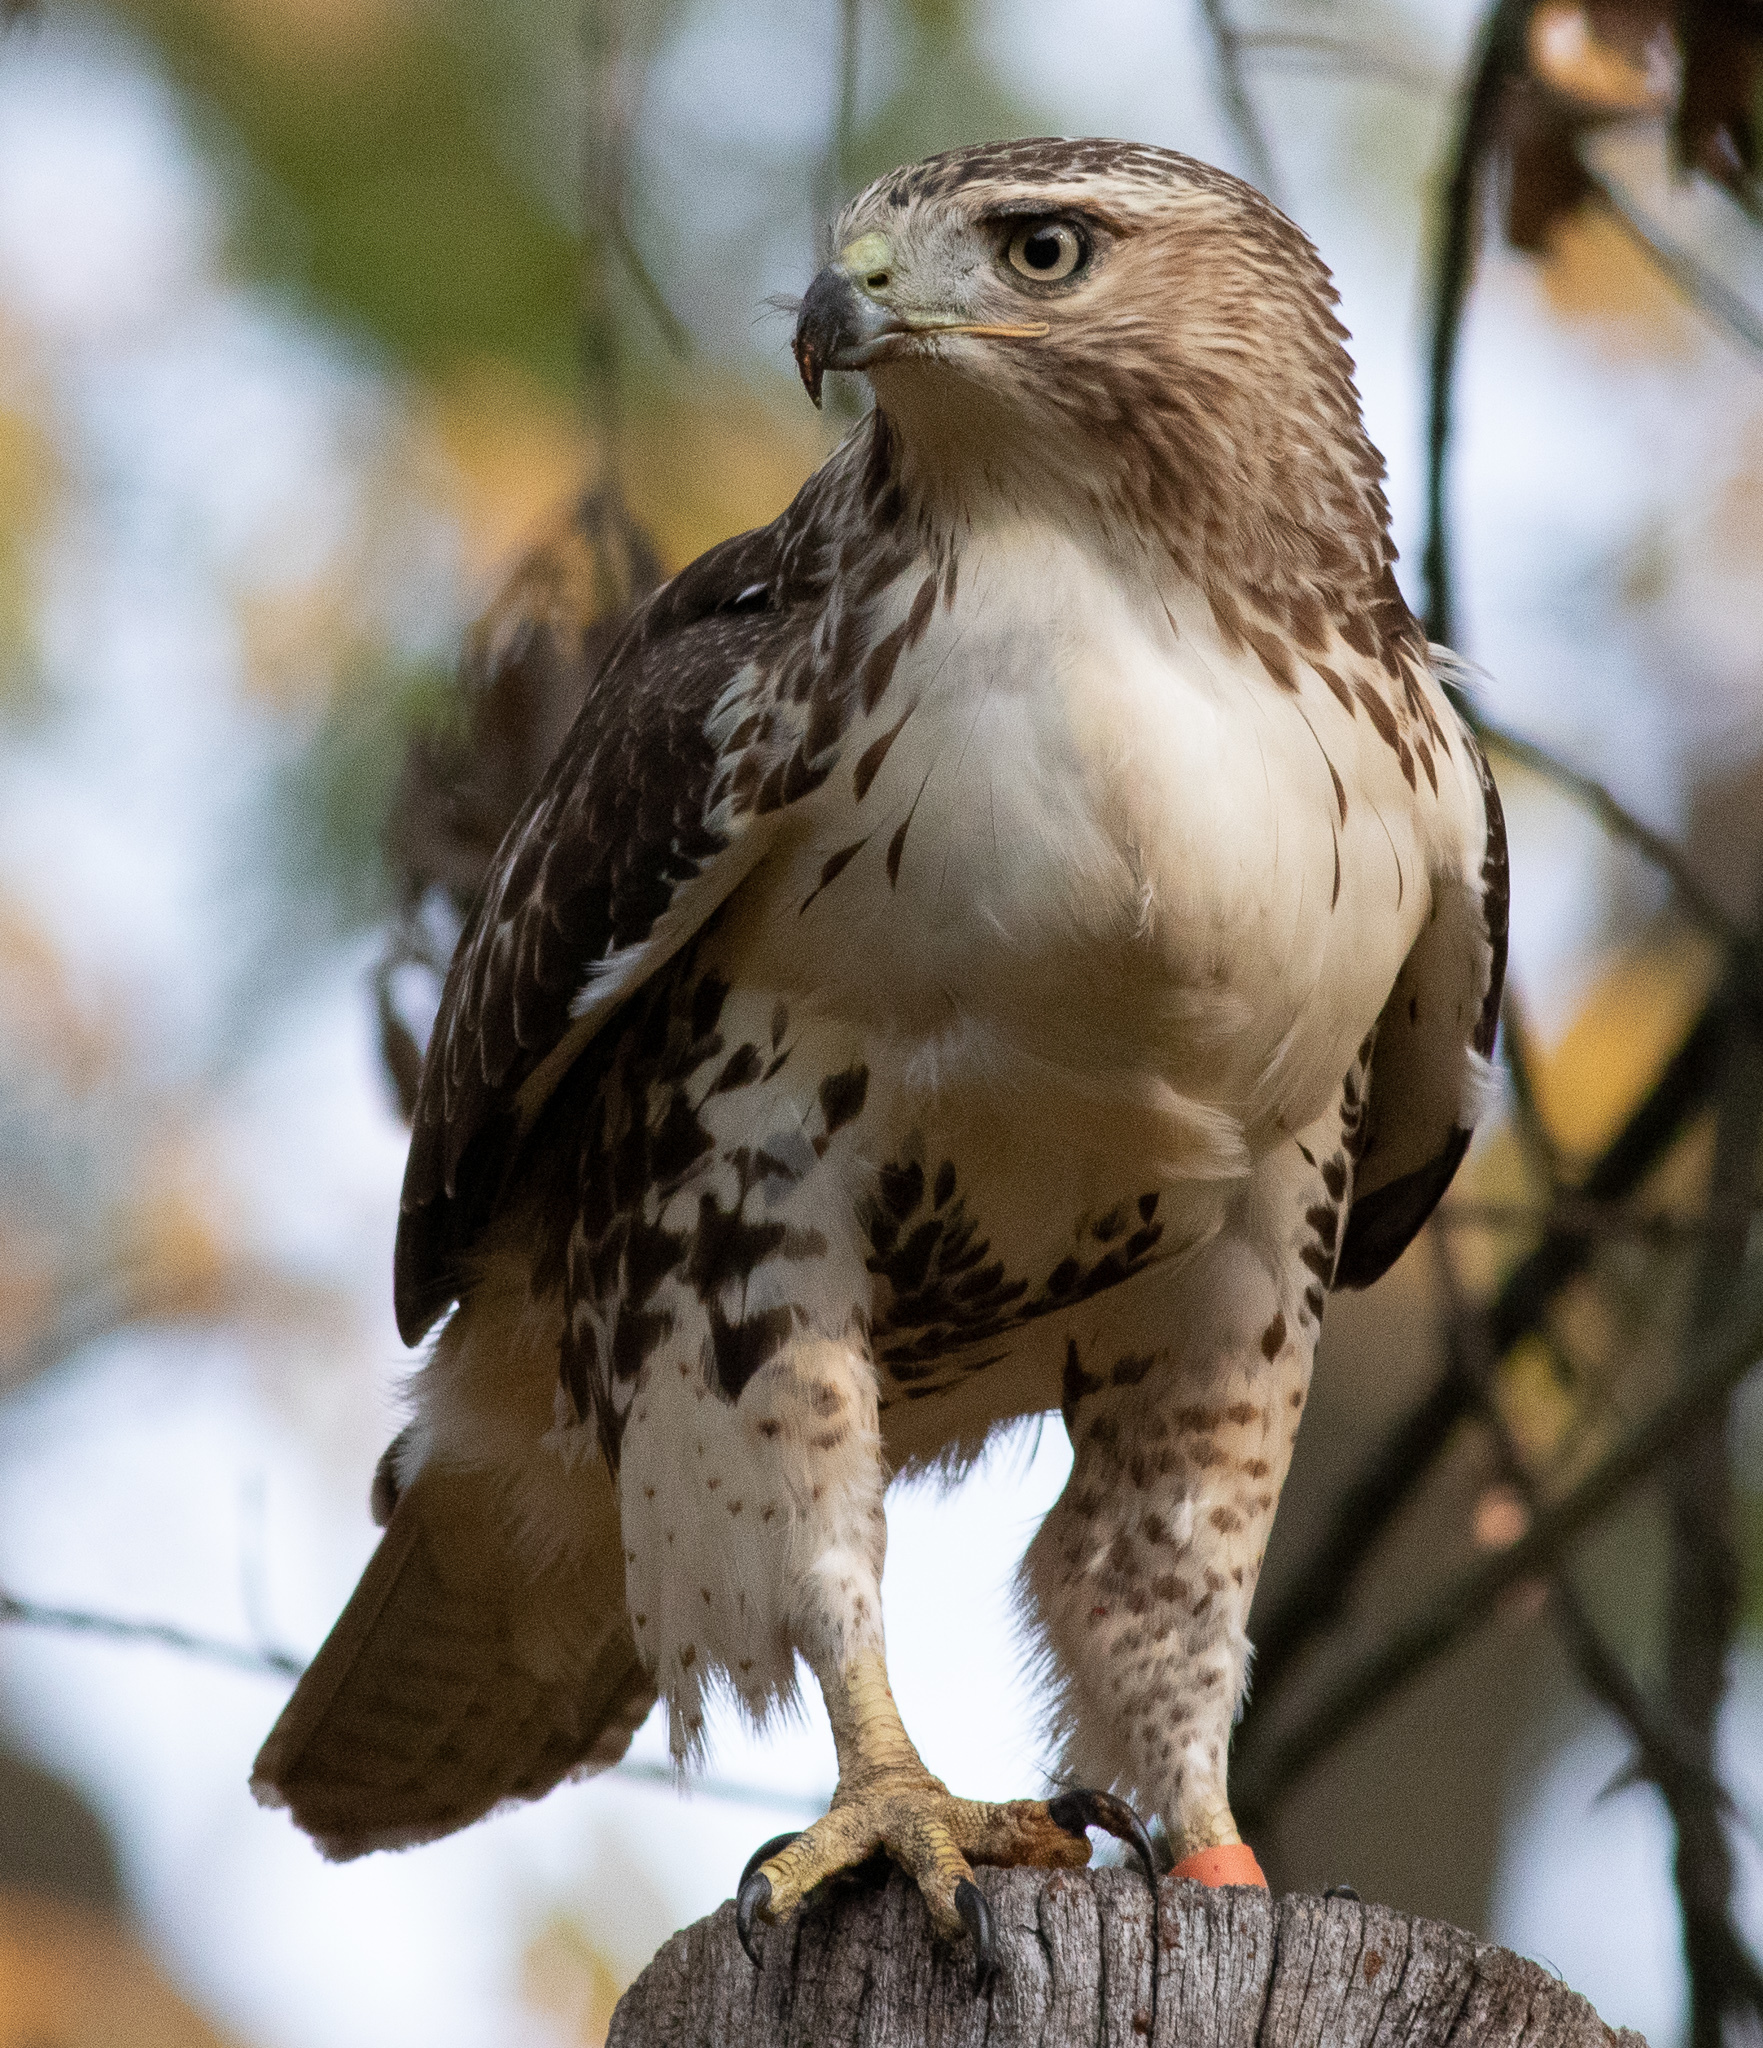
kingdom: Animalia
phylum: Chordata
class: Aves
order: Accipitriformes
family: Accipitridae
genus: Buteo
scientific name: Buteo jamaicensis
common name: Red-tailed hawk
